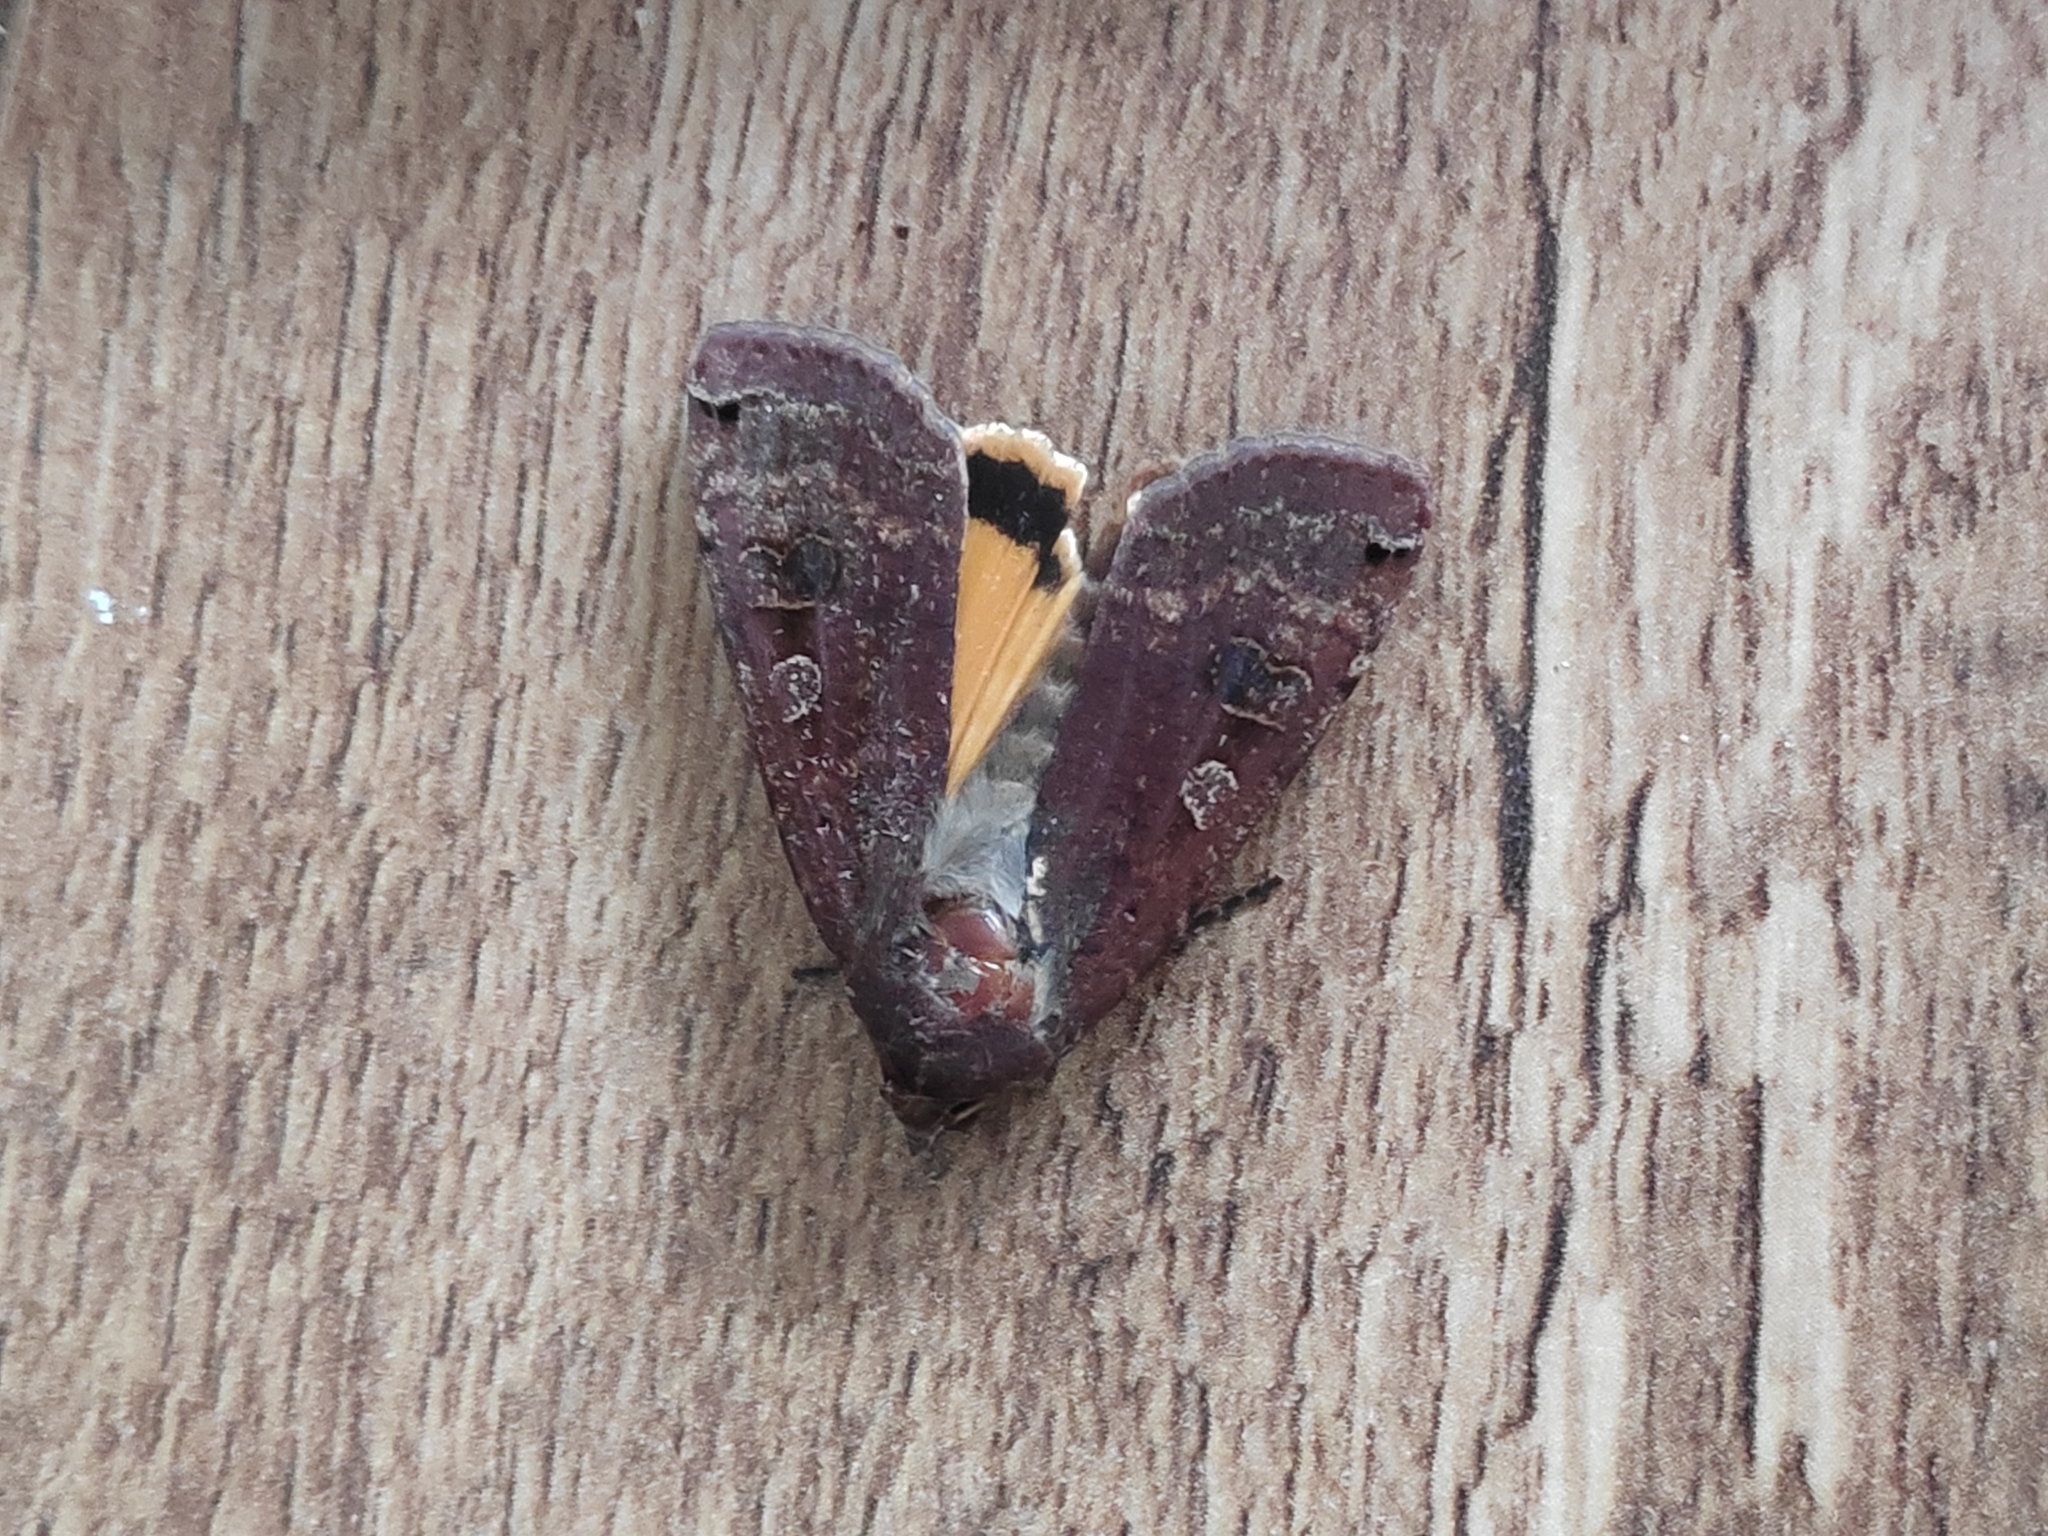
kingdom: Animalia
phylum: Arthropoda
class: Insecta
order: Lepidoptera
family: Noctuidae
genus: Noctua
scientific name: Noctua pronuba
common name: Large yellow underwing
